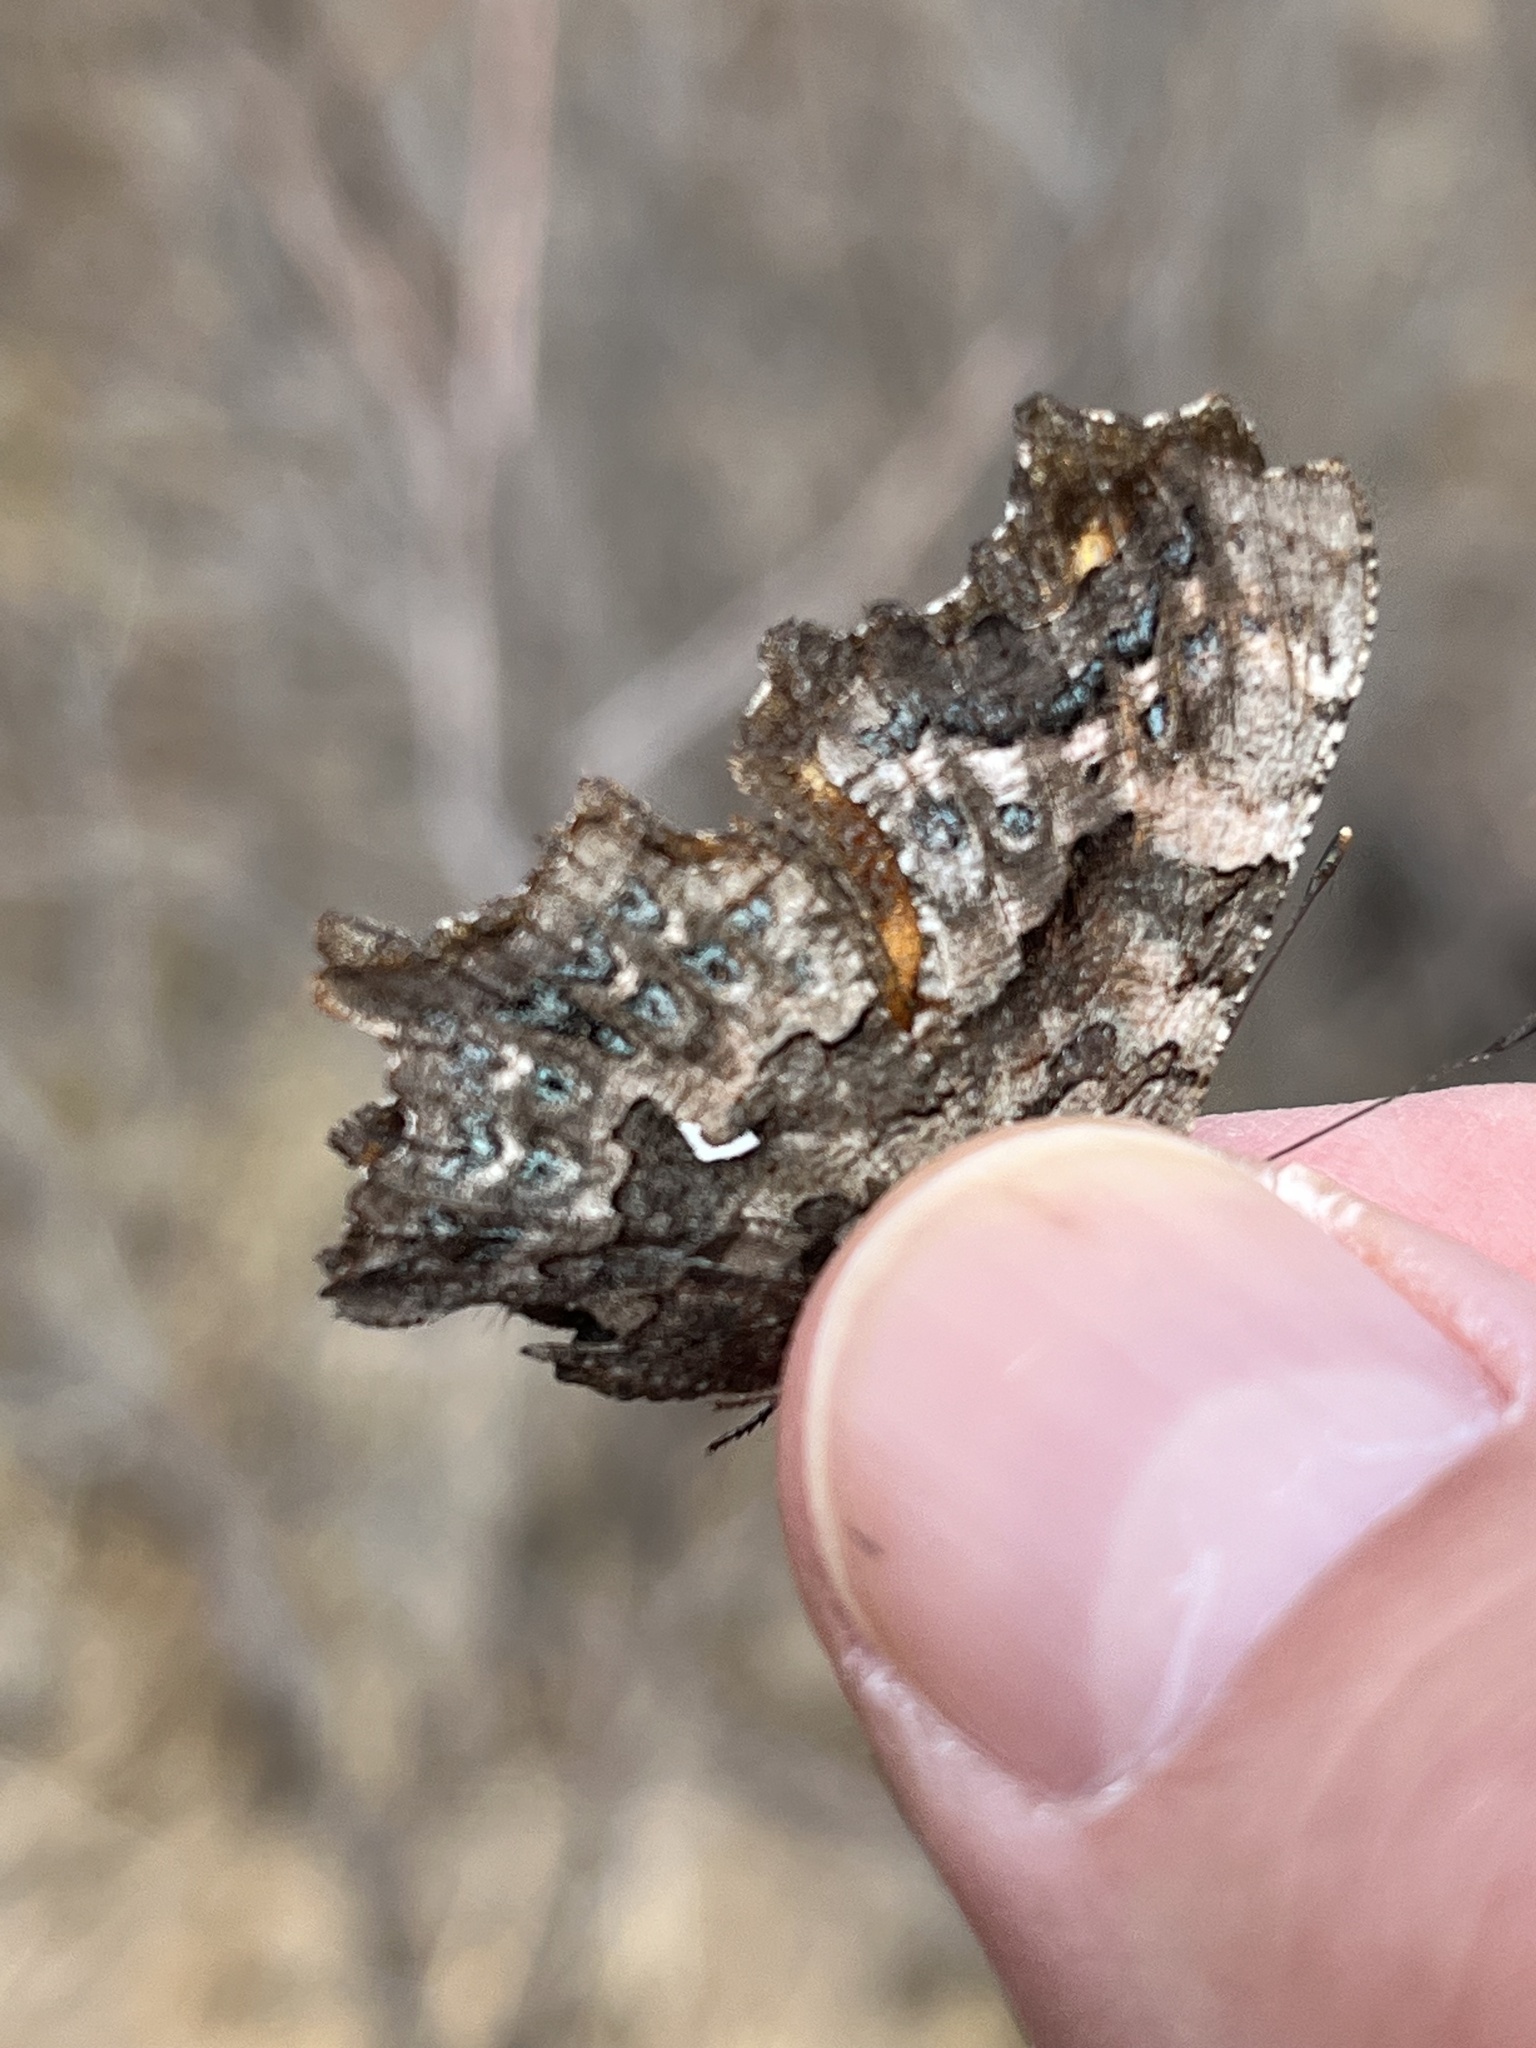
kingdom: Animalia
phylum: Arthropoda
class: Insecta
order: Lepidoptera
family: Nymphalidae
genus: Polygonia
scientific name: Polygonia faunus
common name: Green comma
